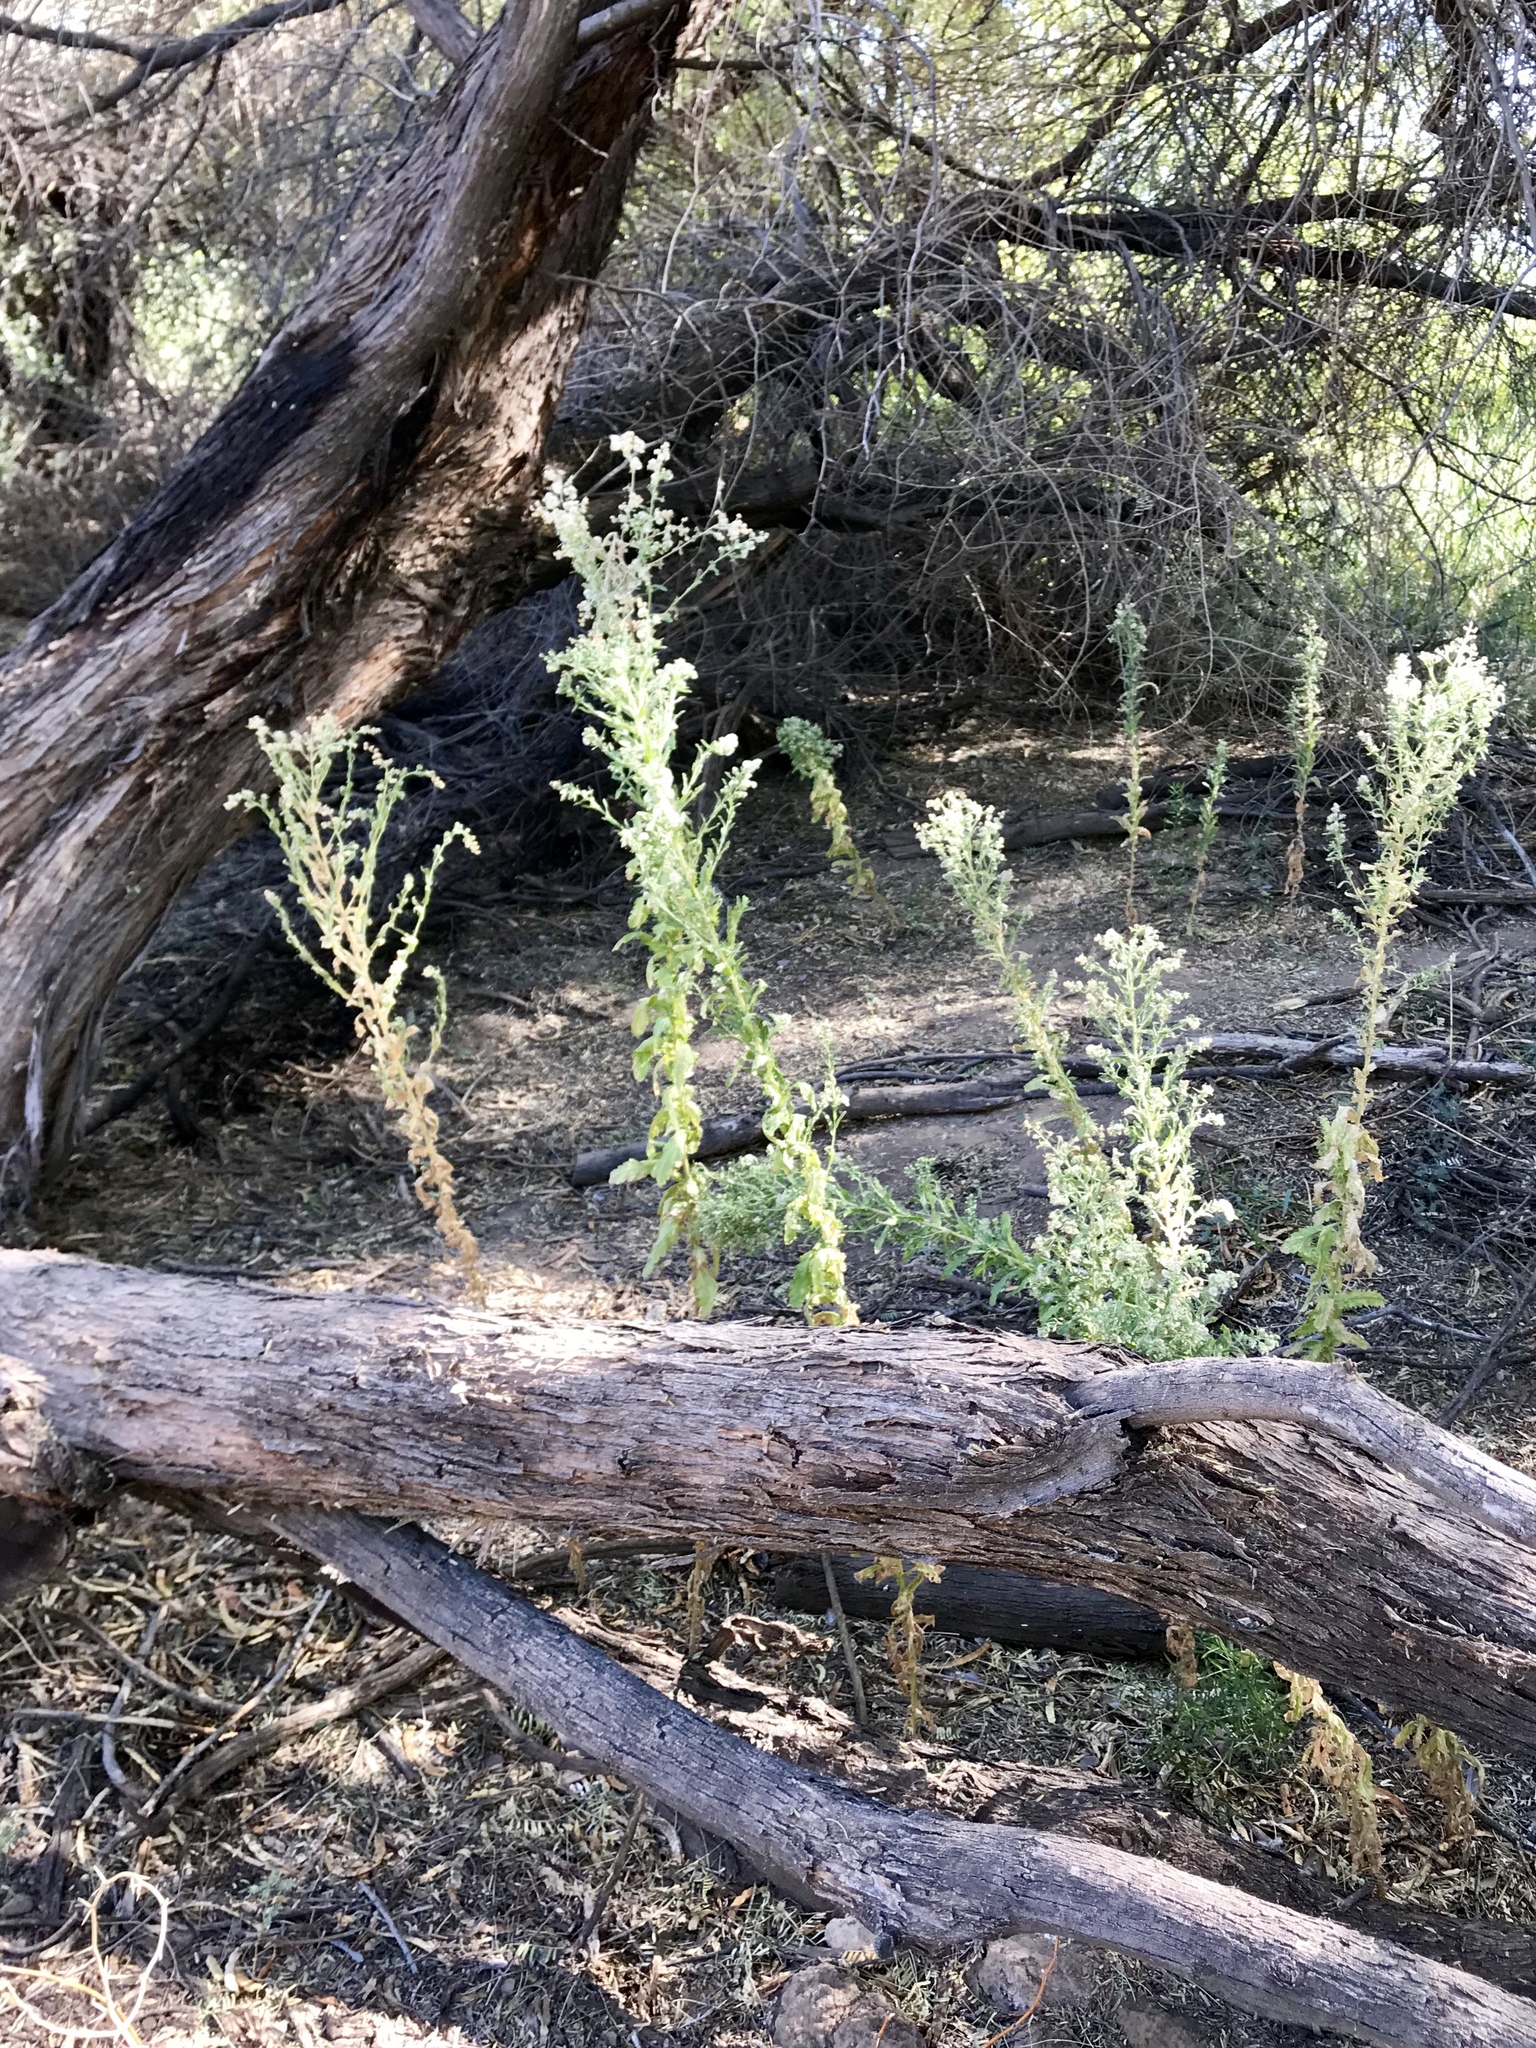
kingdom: Plantae
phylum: Tracheophyta
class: Magnoliopsida
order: Asterales
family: Asteraceae
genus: Heterotheca
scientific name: Heterotheca grandiflora
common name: Telegraphweed
